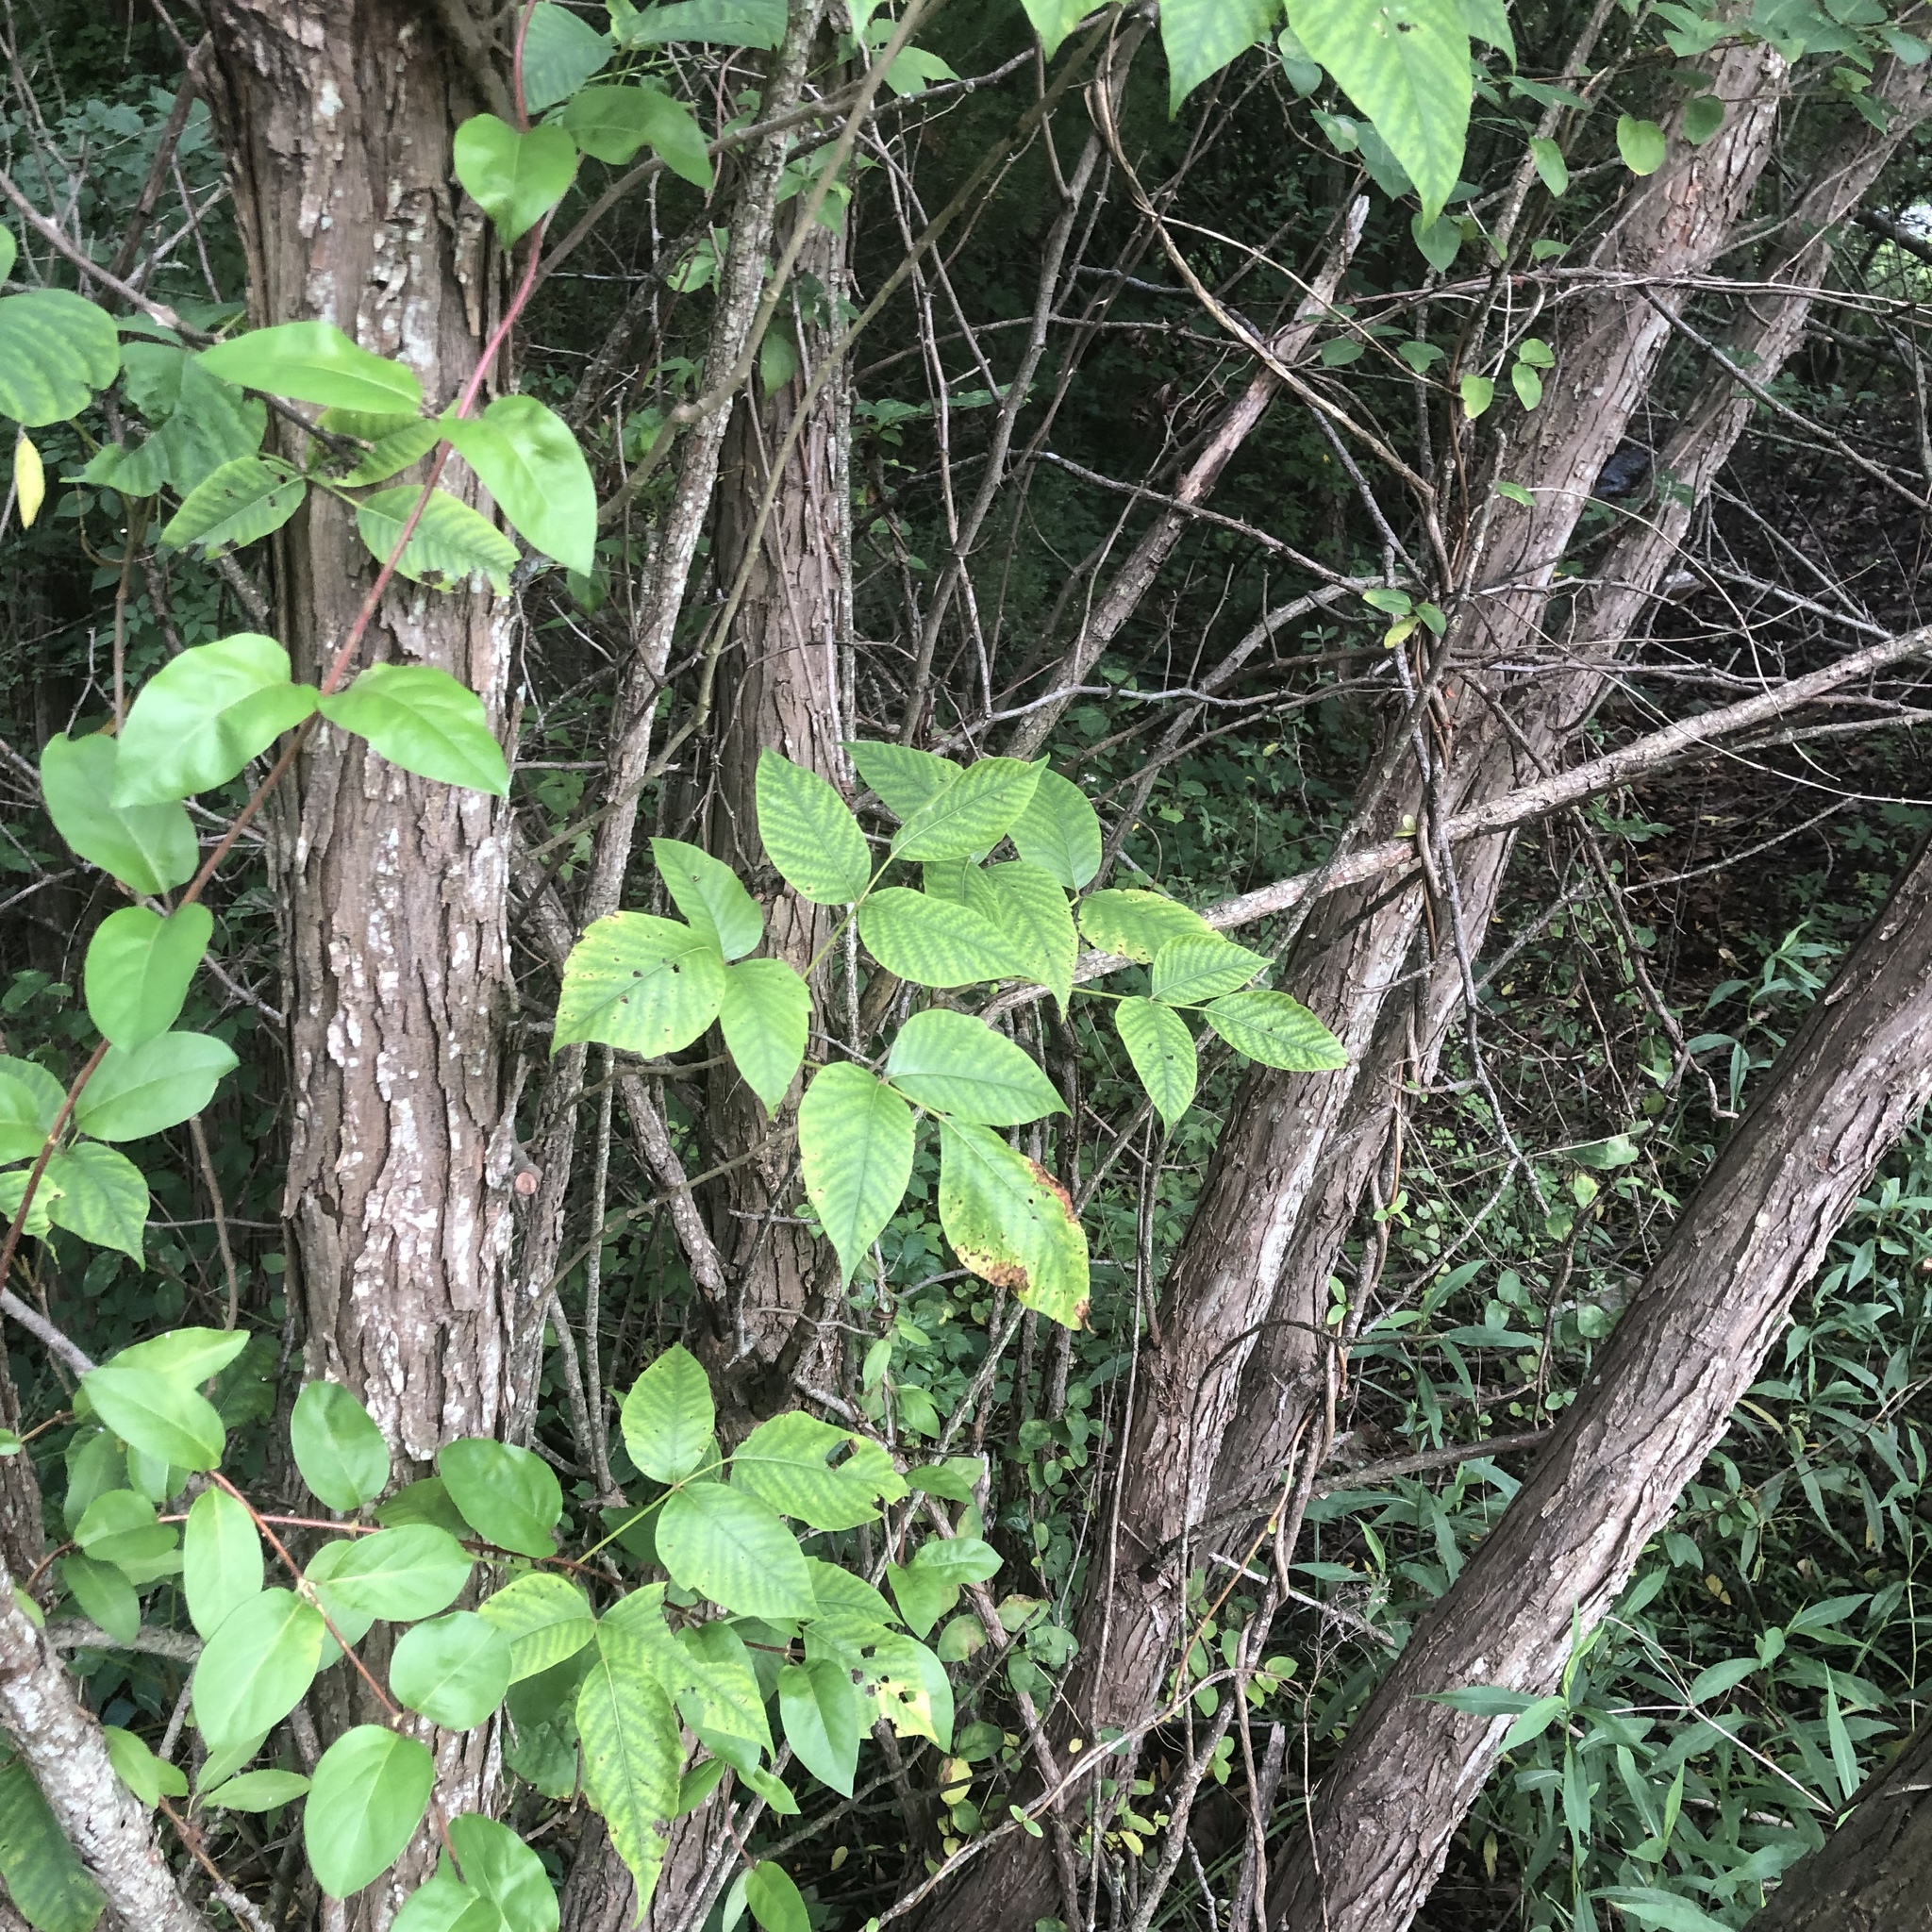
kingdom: Plantae
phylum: Tracheophyta
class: Magnoliopsida
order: Sapindales
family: Anacardiaceae
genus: Toxicodendron
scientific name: Toxicodendron radicans
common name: Poison ivy
